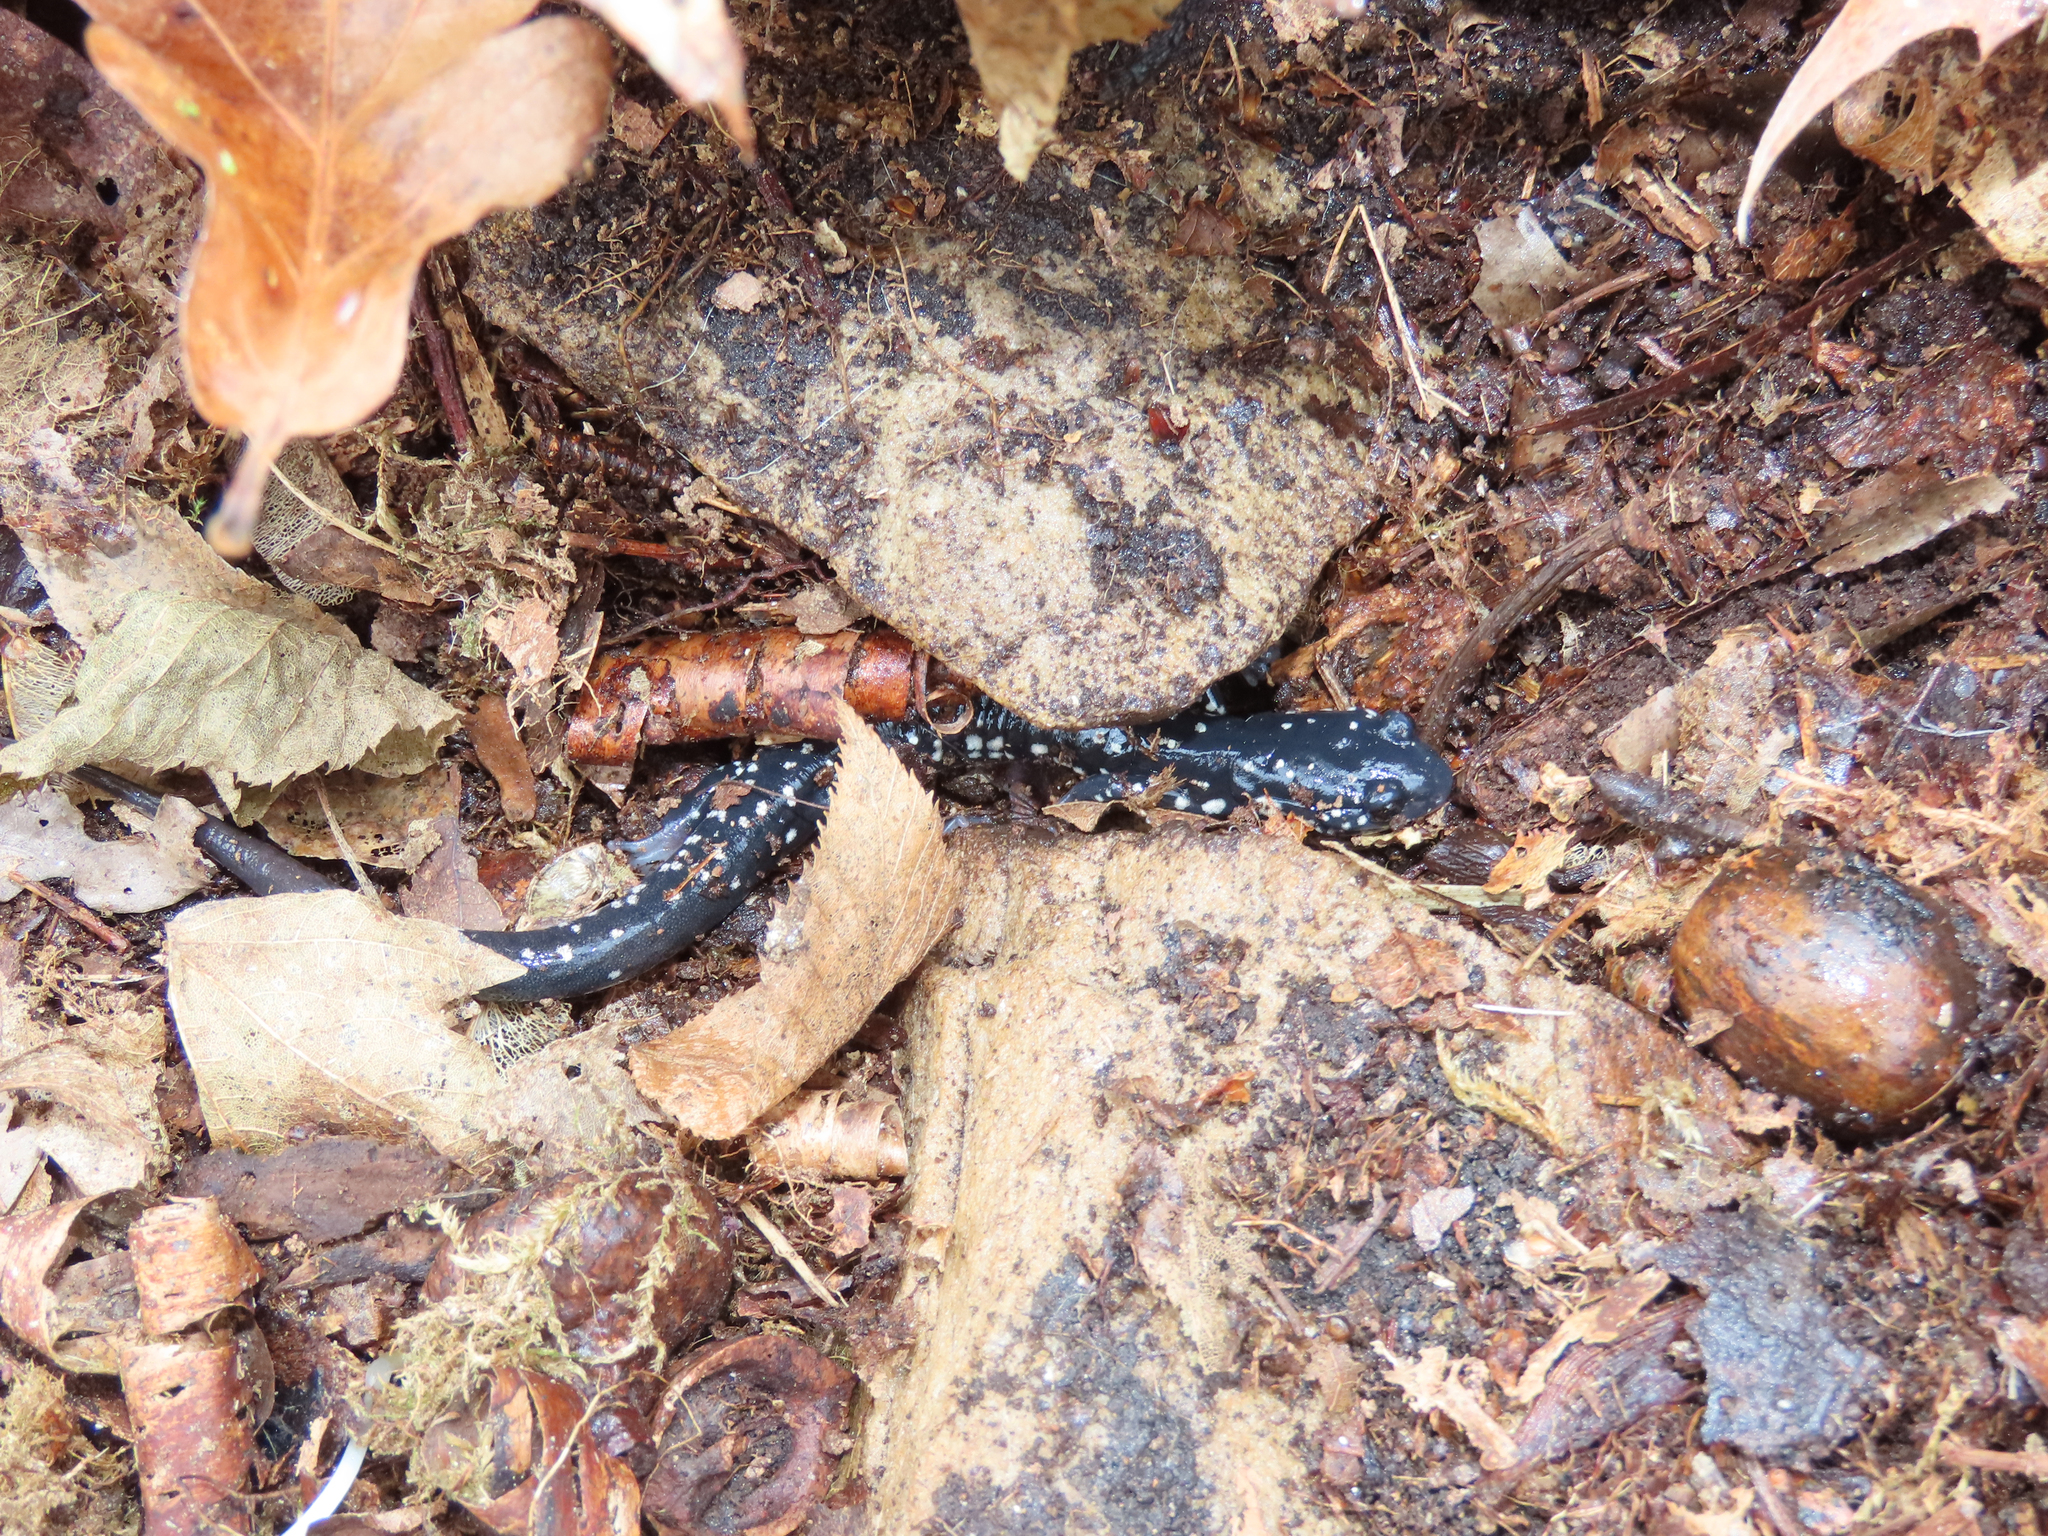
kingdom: Animalia
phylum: Chordata
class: Amphibia
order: Caudata
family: Plethodontidae
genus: Plethodon
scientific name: Plethodon glutinosus
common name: Northern slimy salamander
